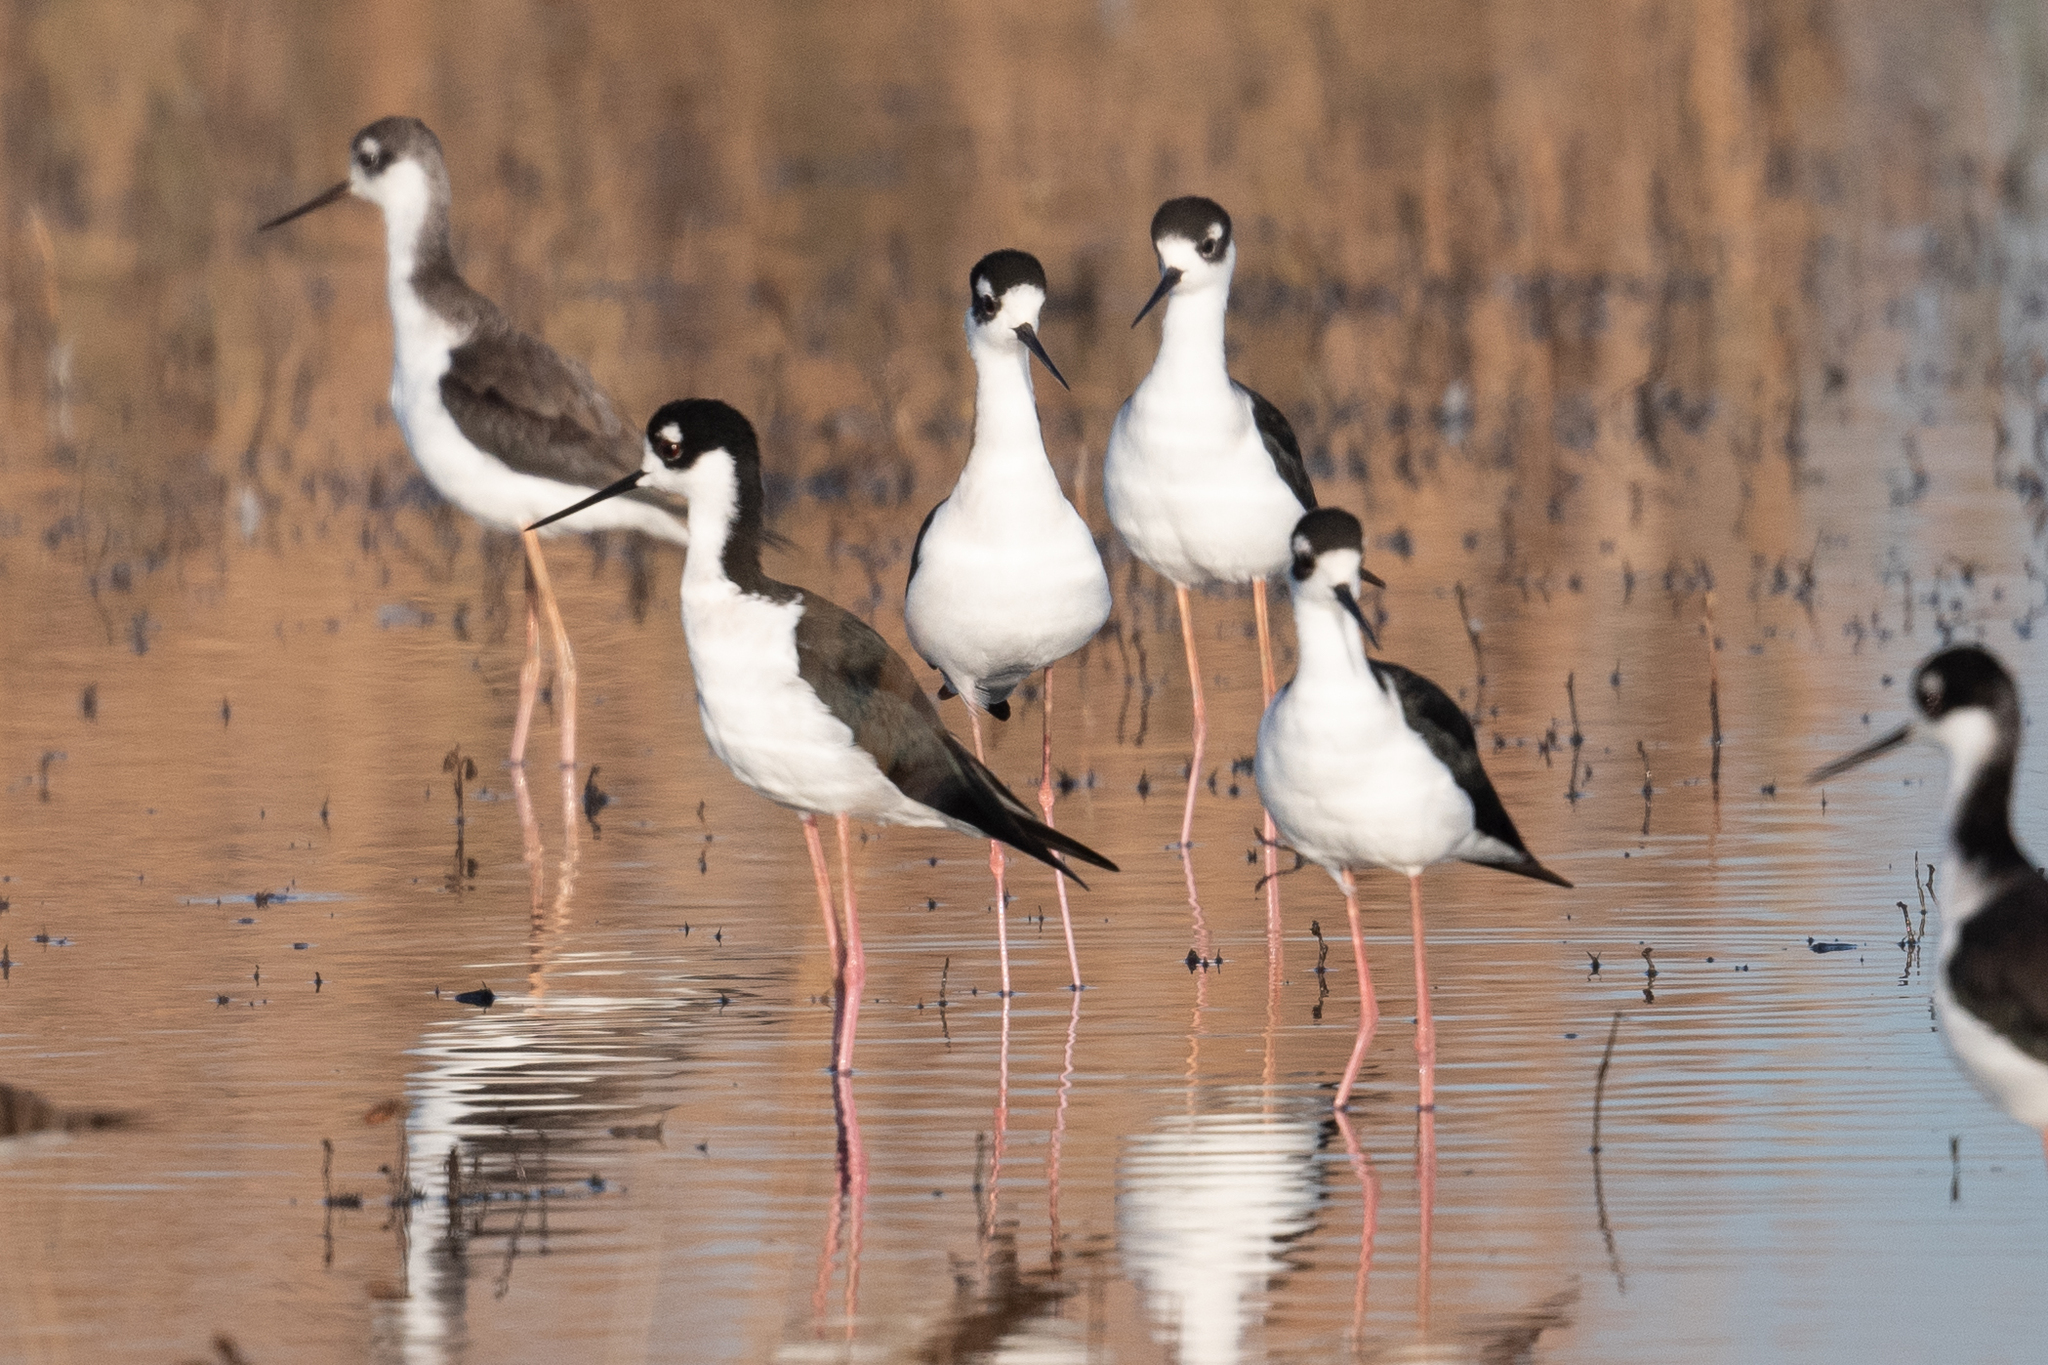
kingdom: Animalia
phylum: Chordata
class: Aves
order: Charadriiformes
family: Recurvirostridae
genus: Himantopus
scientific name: Himantopus mexicanus
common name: Black-necked stilt
